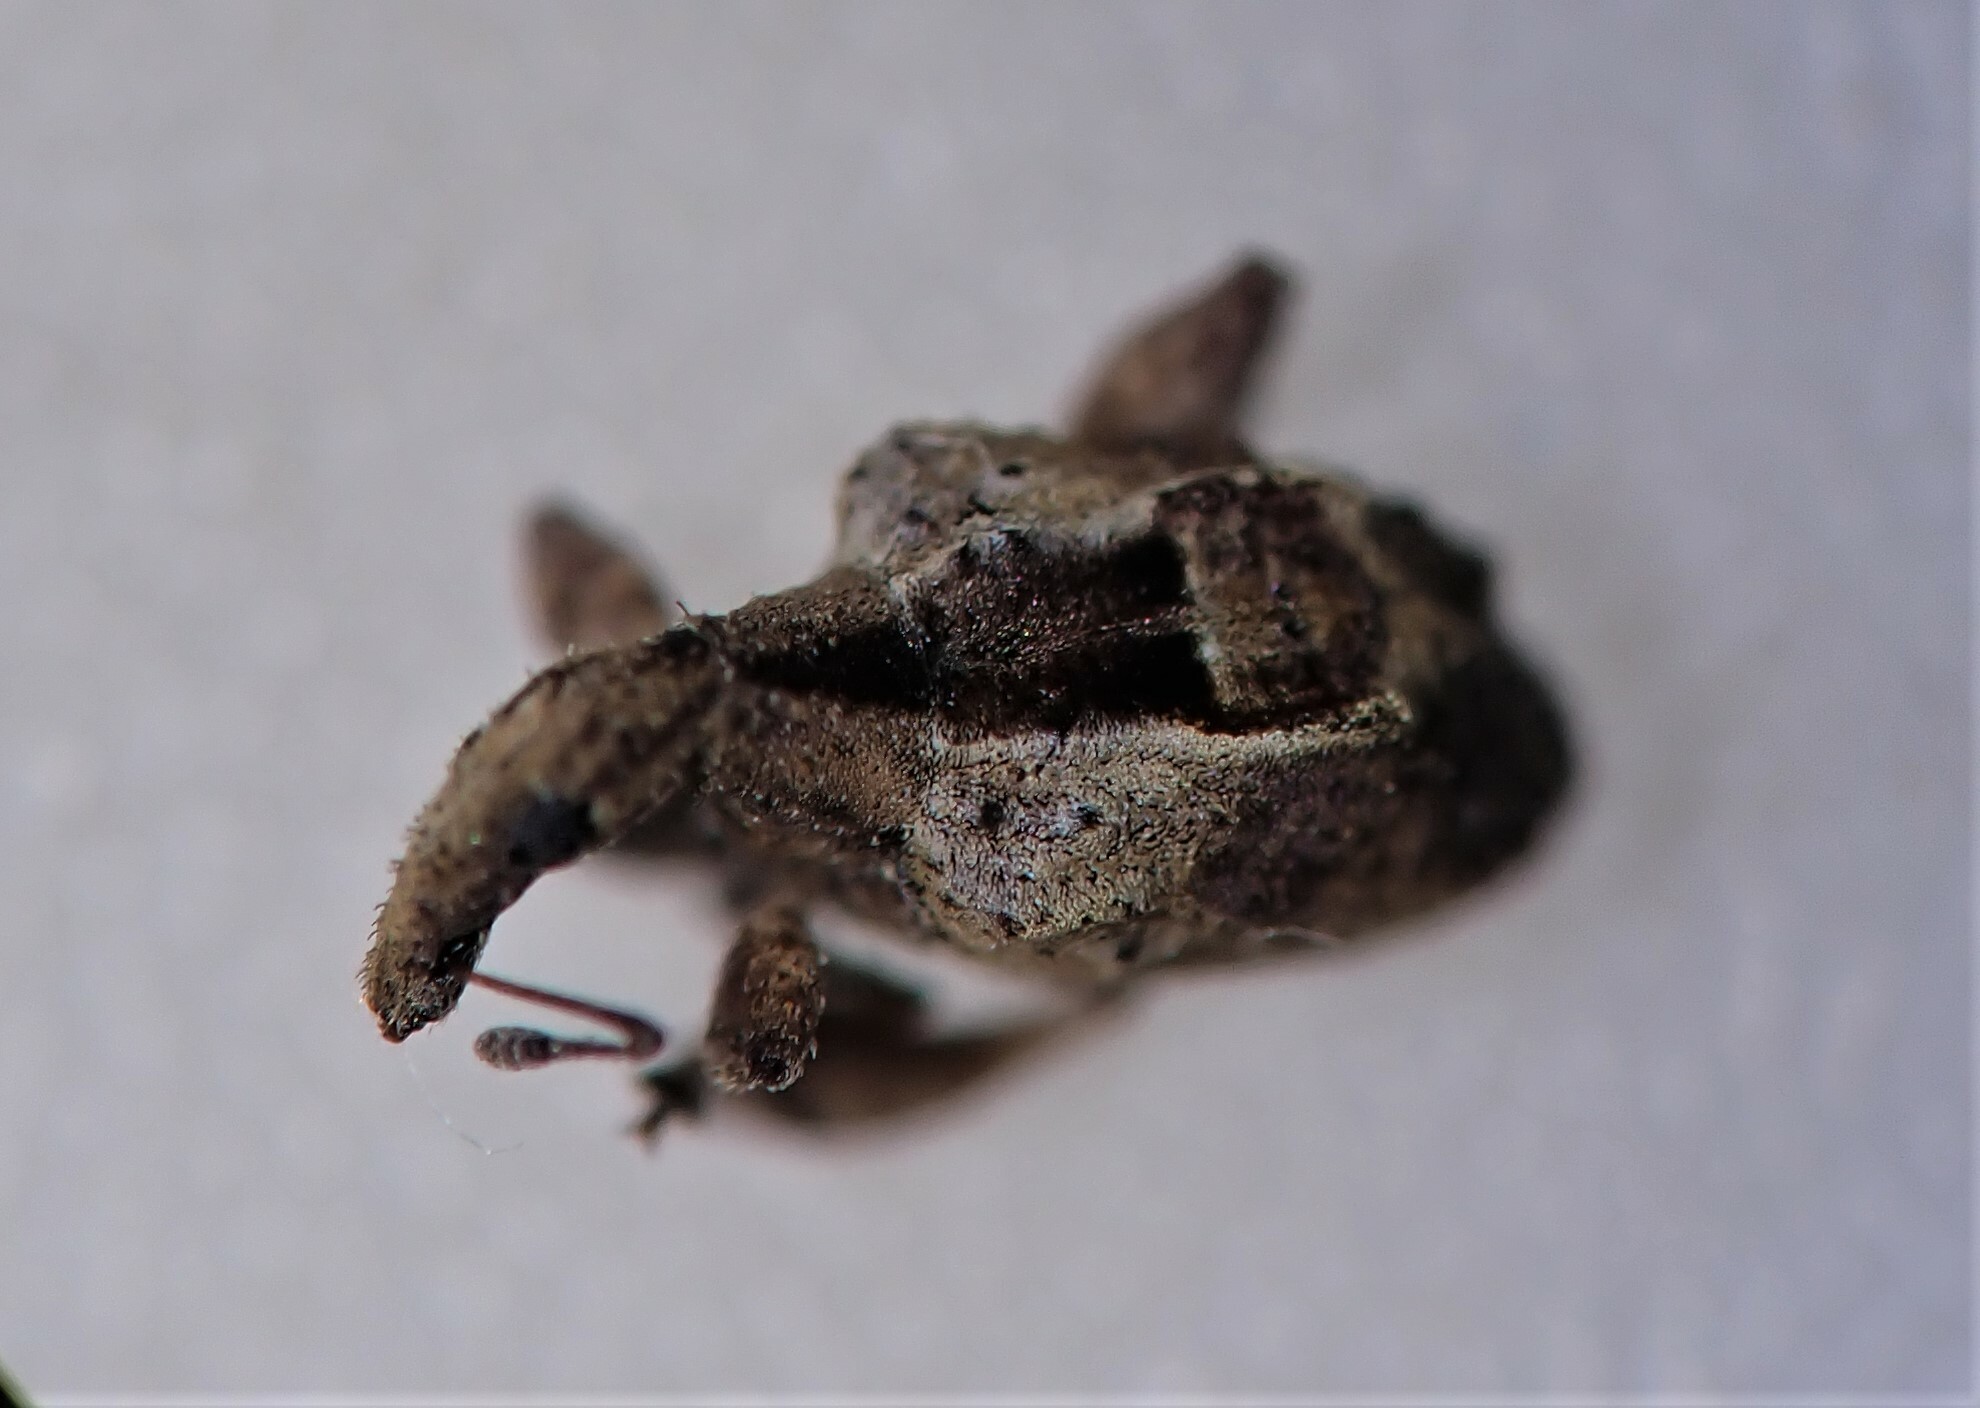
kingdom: Animalia
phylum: Arthropoda
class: Insecta
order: Coleoptera
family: Curculionidae
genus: Stephanorrhynchus
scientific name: Stephanorrhynchus crassus
